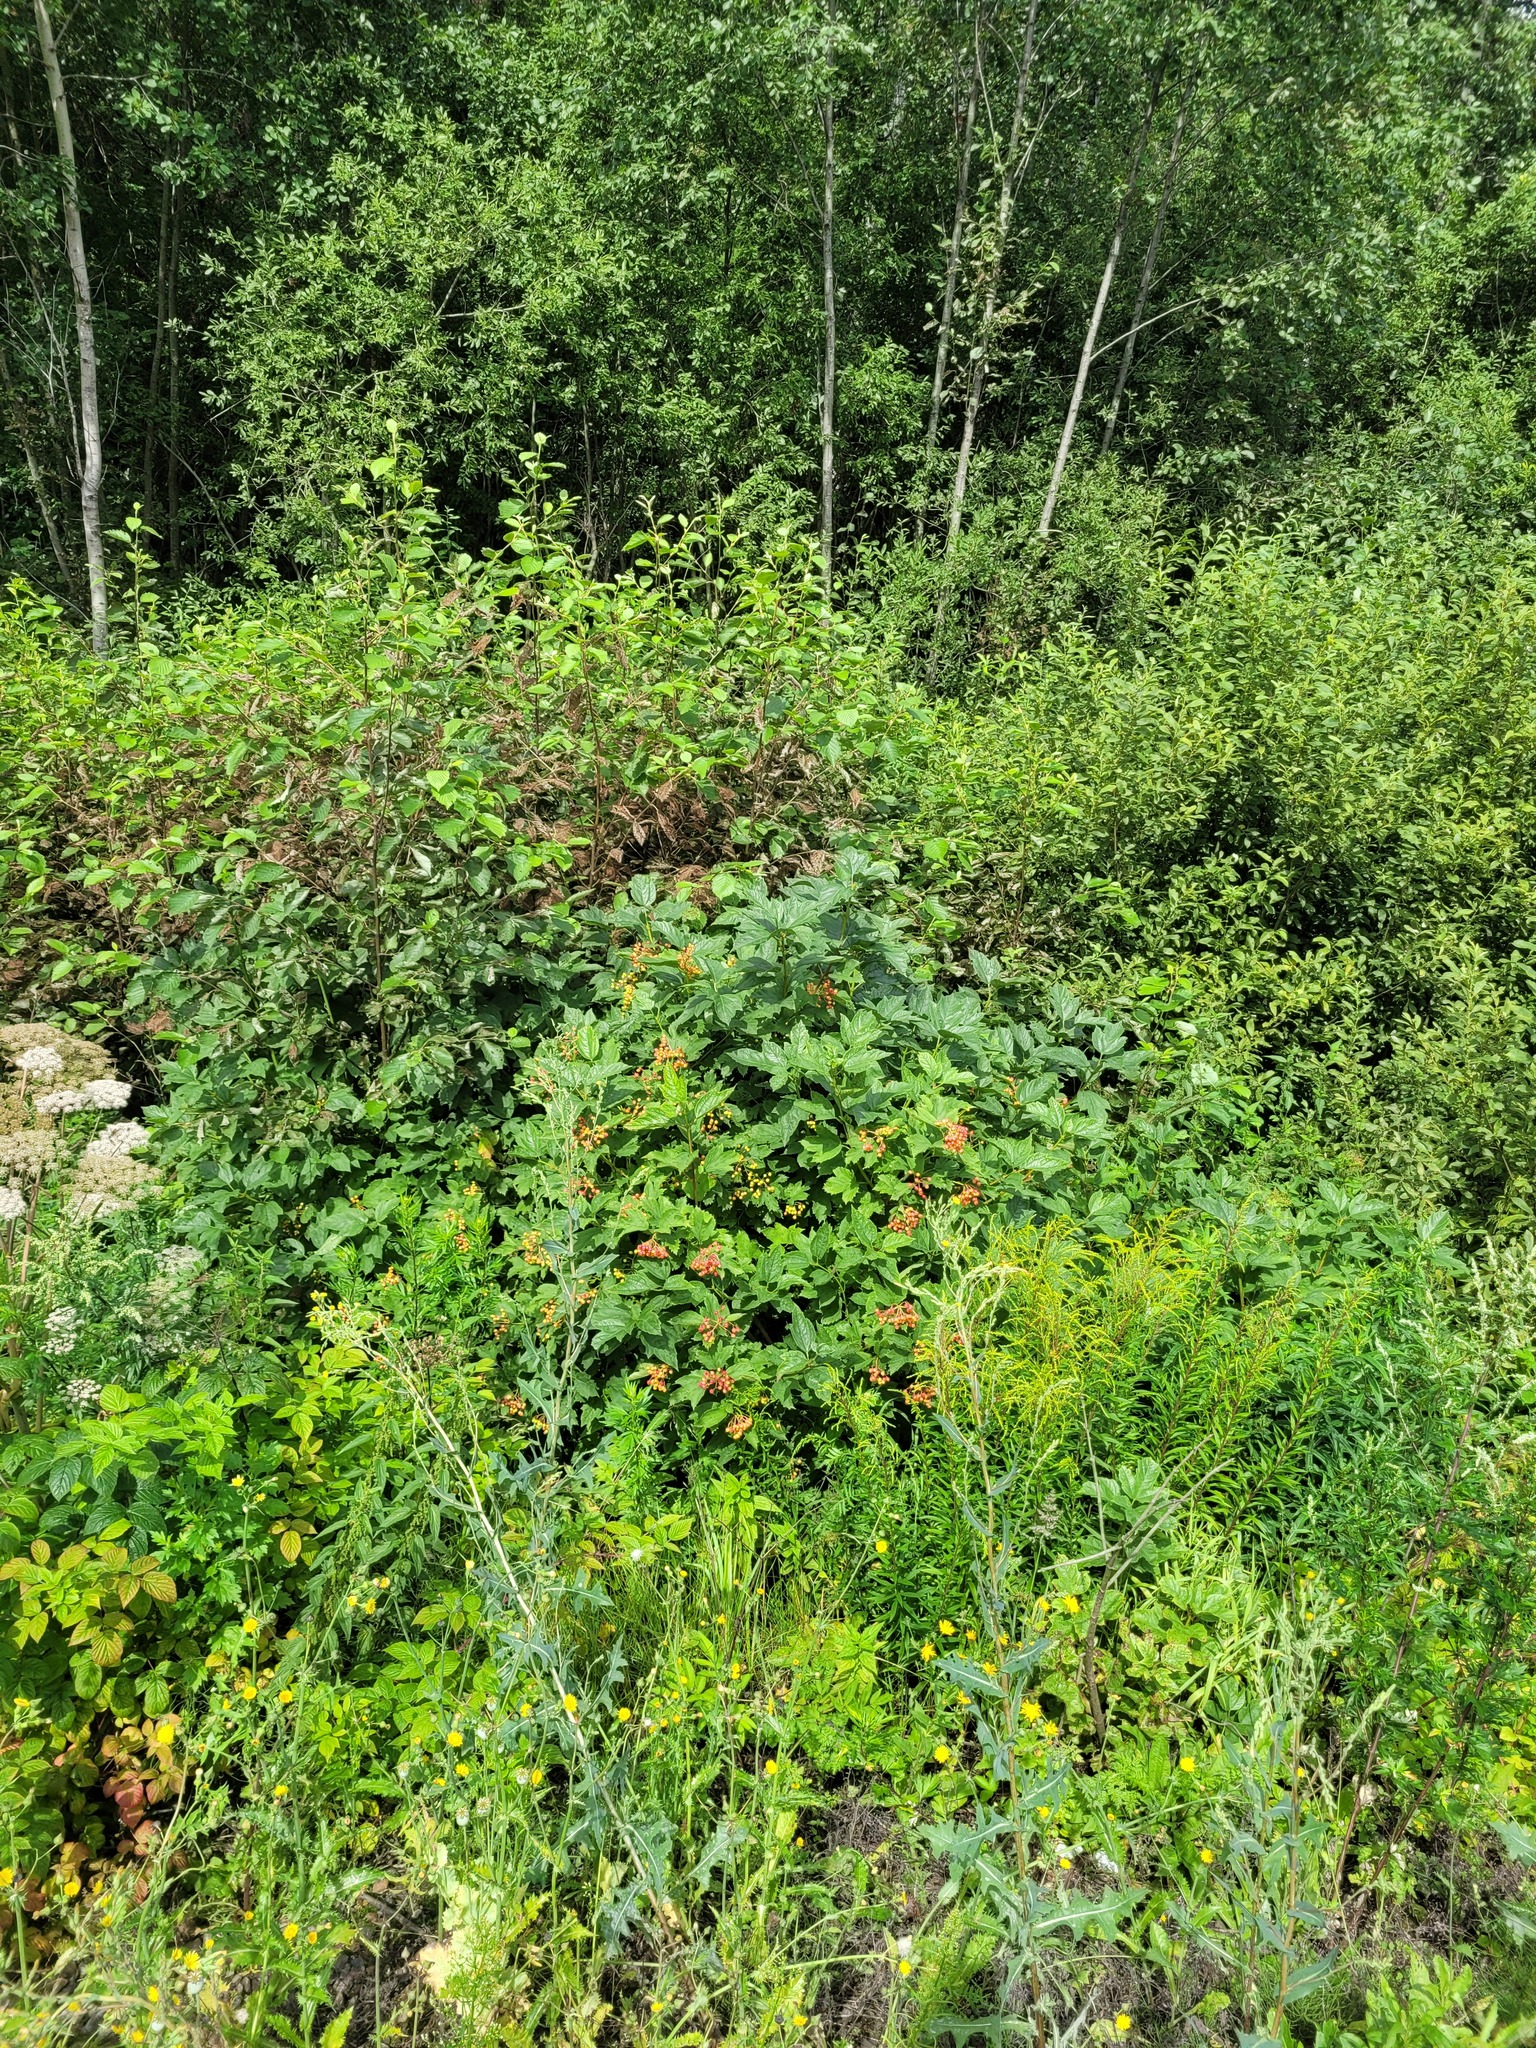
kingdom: Plantae
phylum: Tracheophyta
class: Magnoliopsida
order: Dipsacales
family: Viburnaceae
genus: Viburnum
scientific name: Viburnum opulus
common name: Guelder-rose
